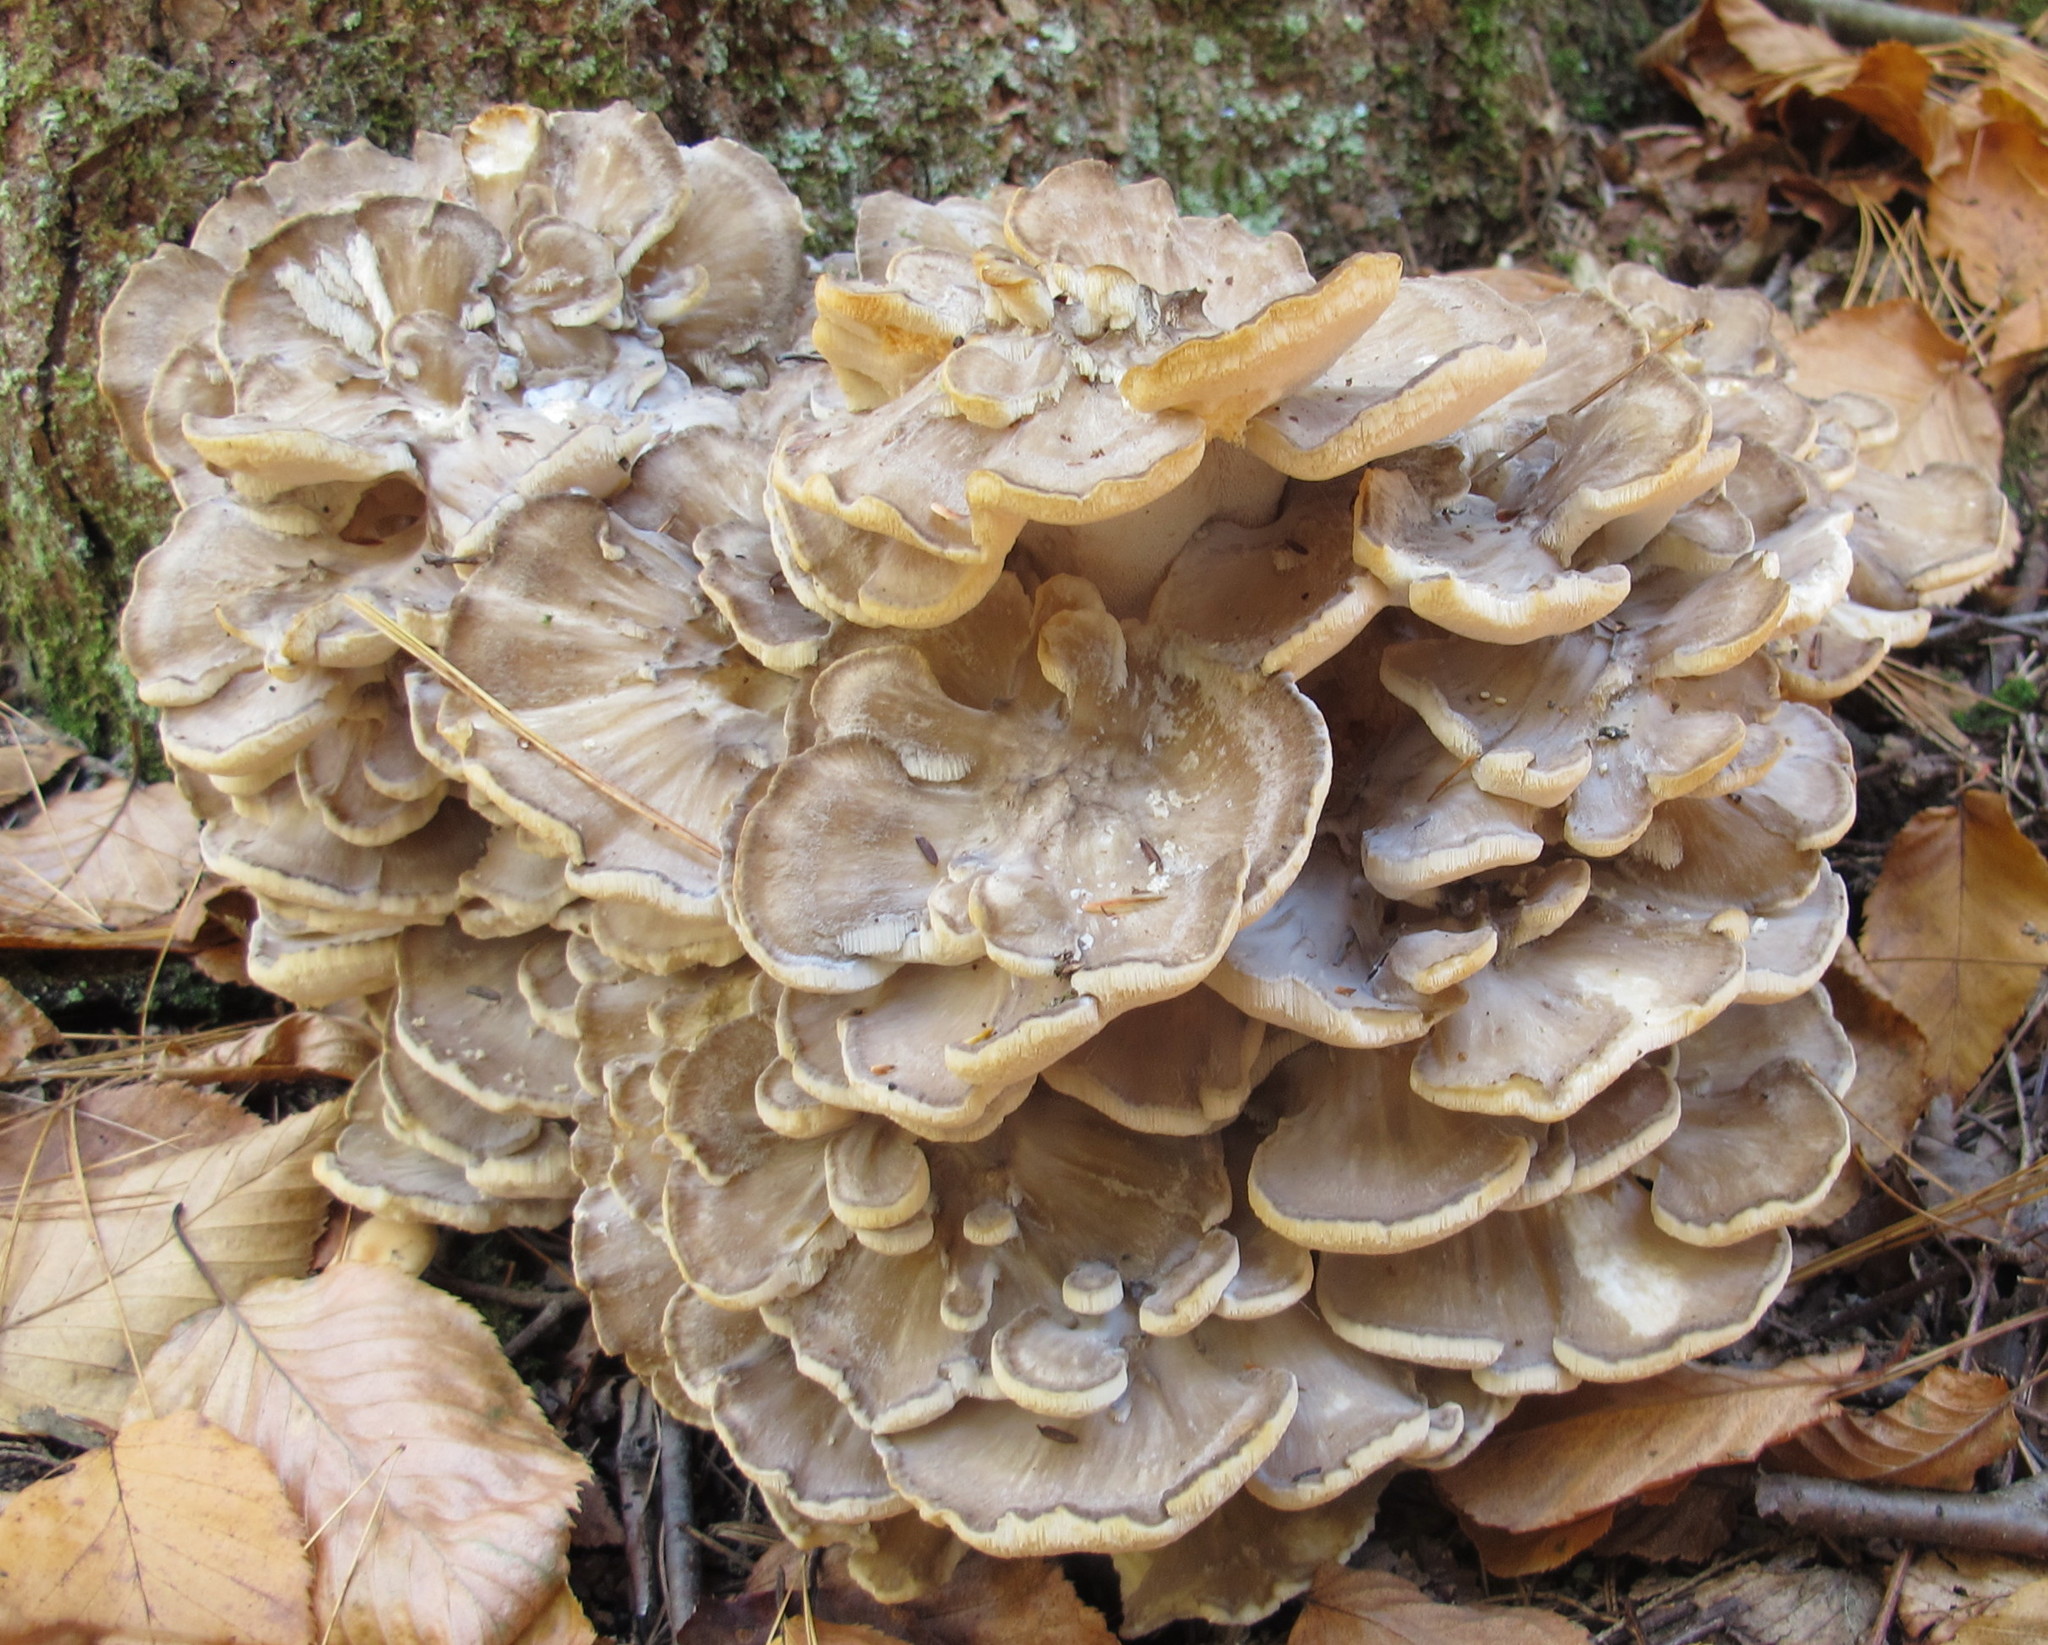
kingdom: Fungi
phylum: Basidiomycota
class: Agaricomycetes
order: Polyporales
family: Grifolaceae
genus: Grifola
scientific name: Grifola frondosa
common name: Hen of the woods
